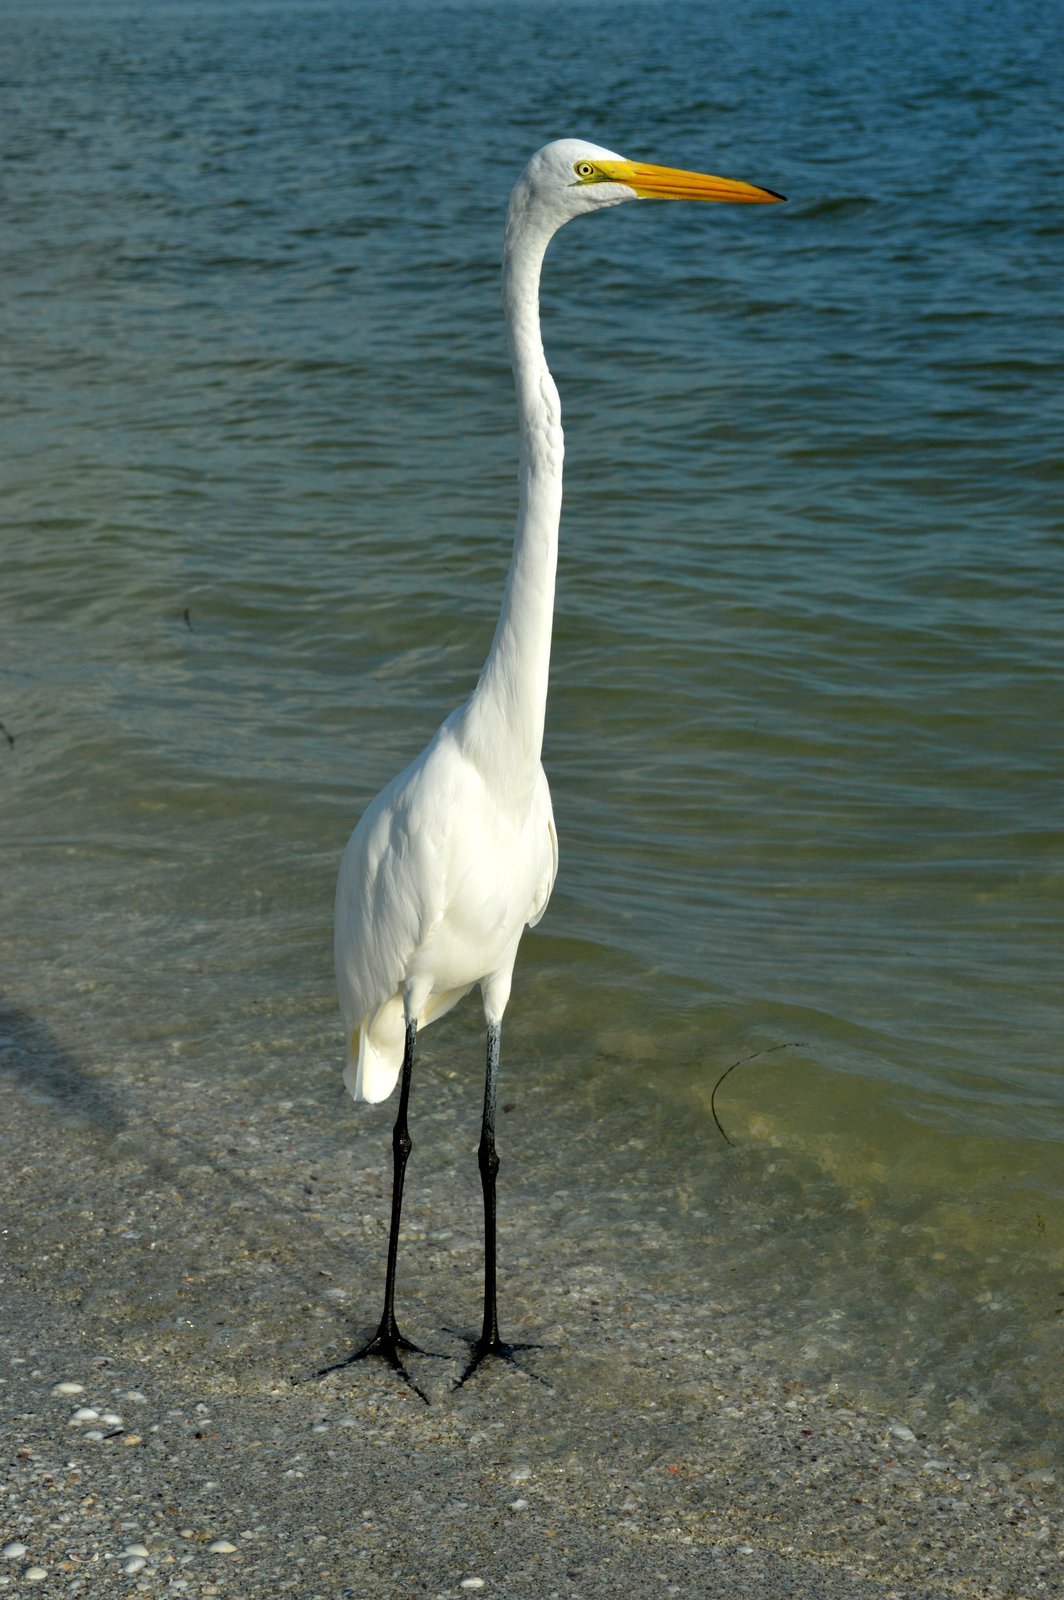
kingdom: Animalia
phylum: Chordata
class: Aves
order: Pelecaniformes
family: Ardeidae
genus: Ardea
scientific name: Ardea alba
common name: Great egret
